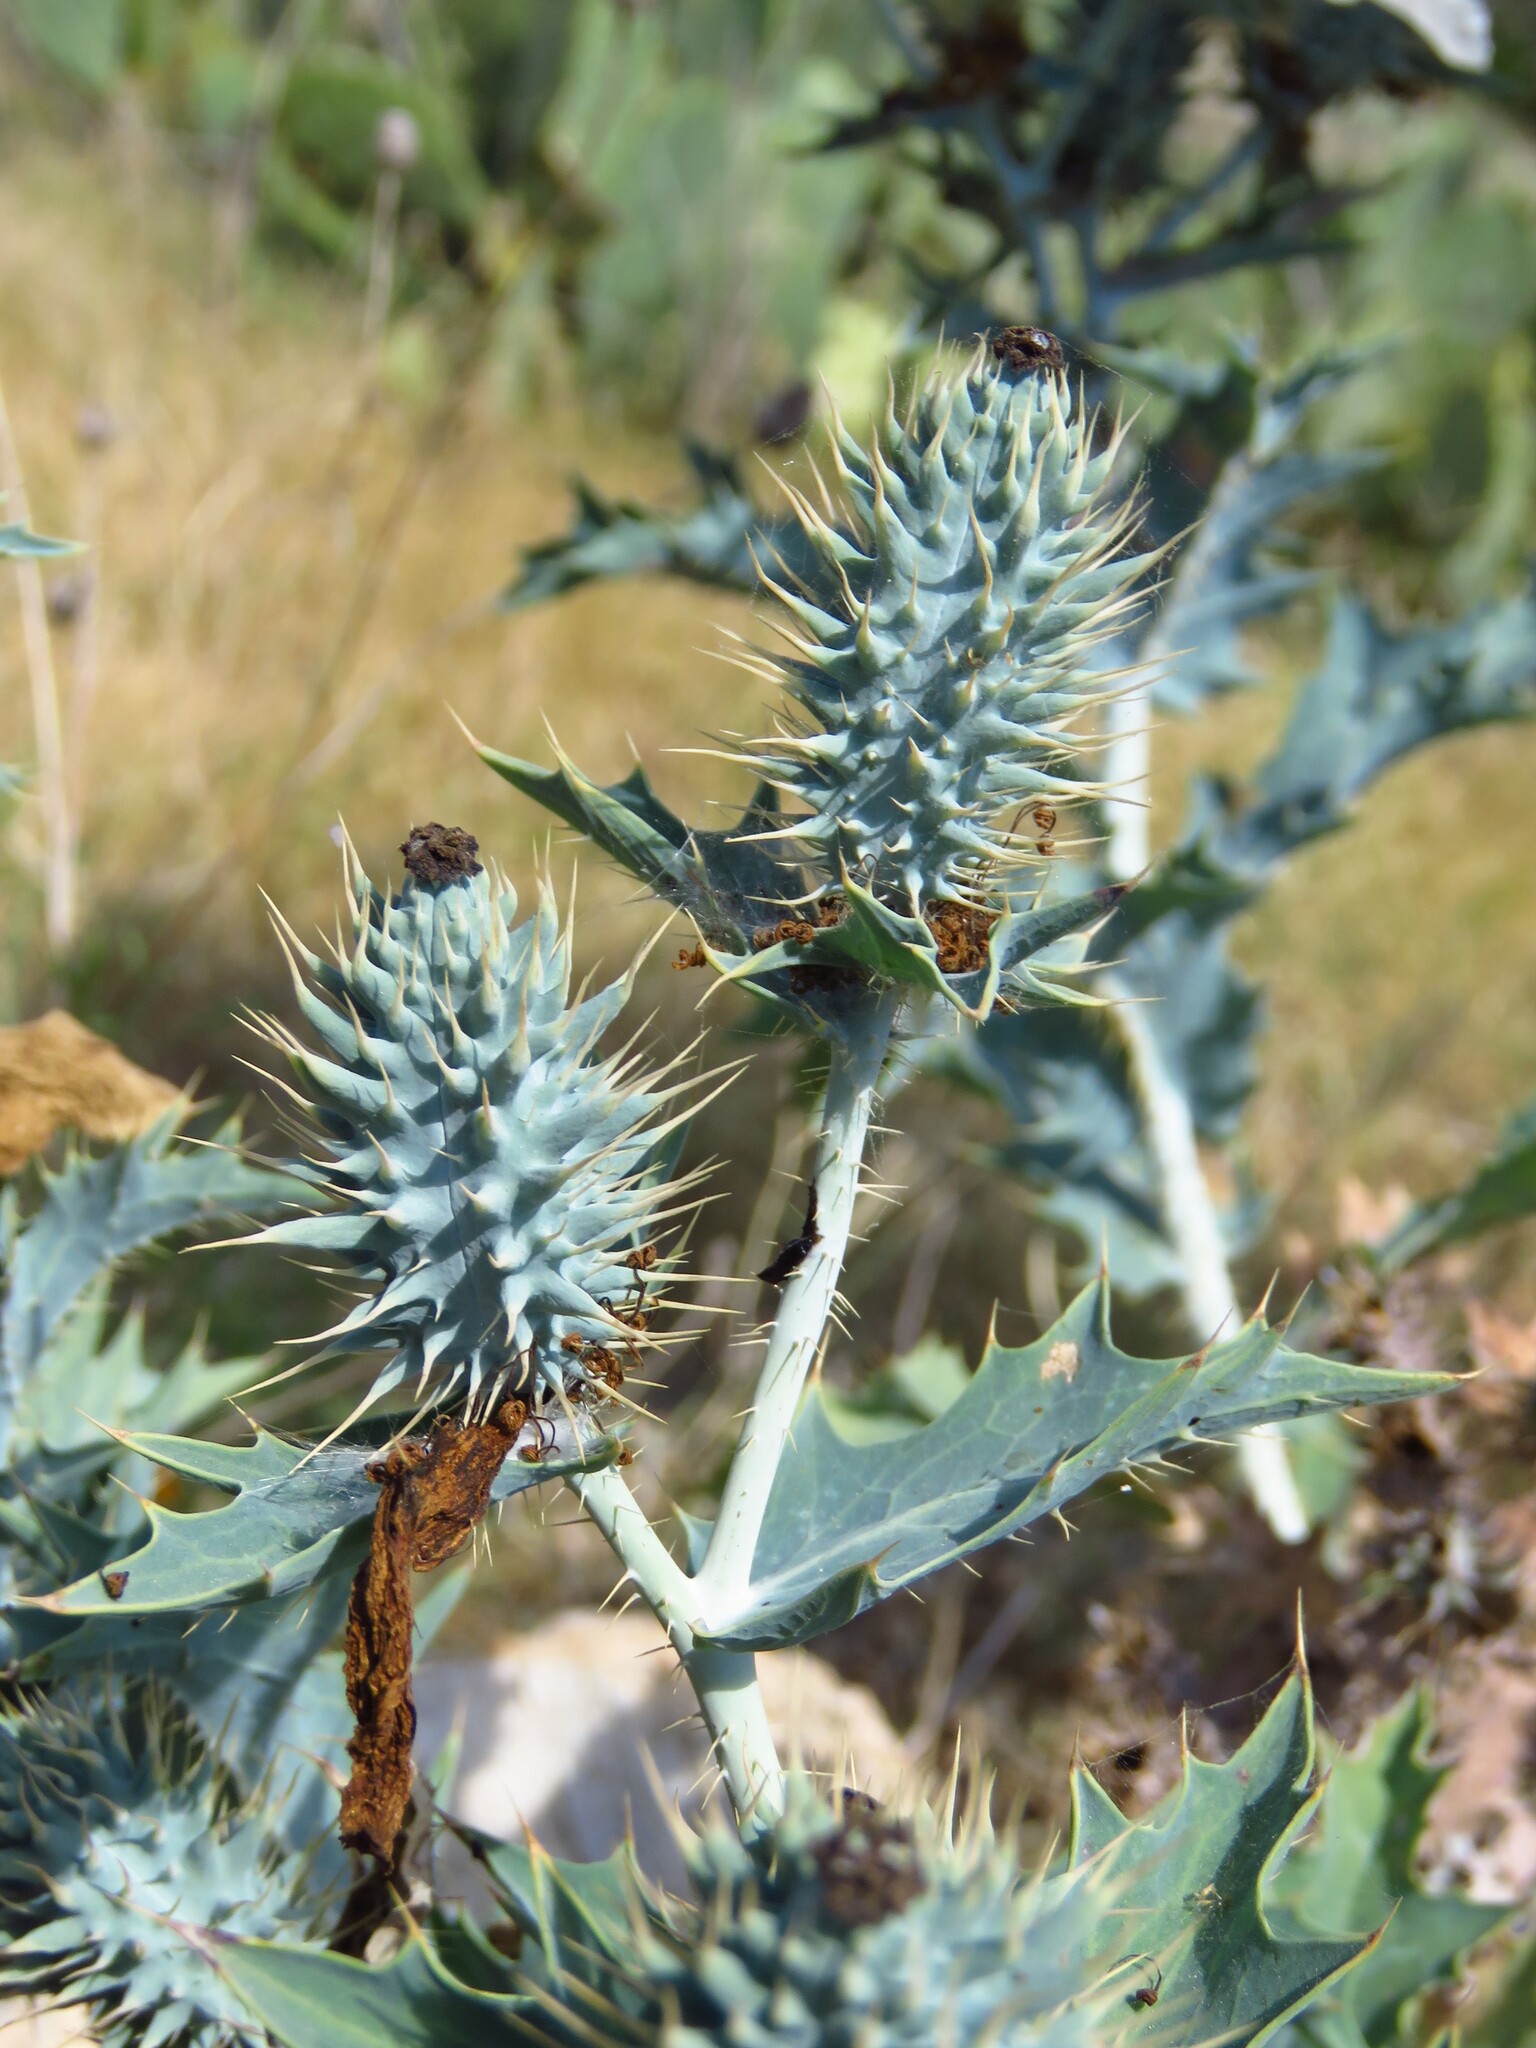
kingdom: Plantae
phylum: Tracheophyta
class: Magnoliopsida
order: Ranunculales
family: Papaveraceae
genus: Argemone
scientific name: Argemone albiflora
